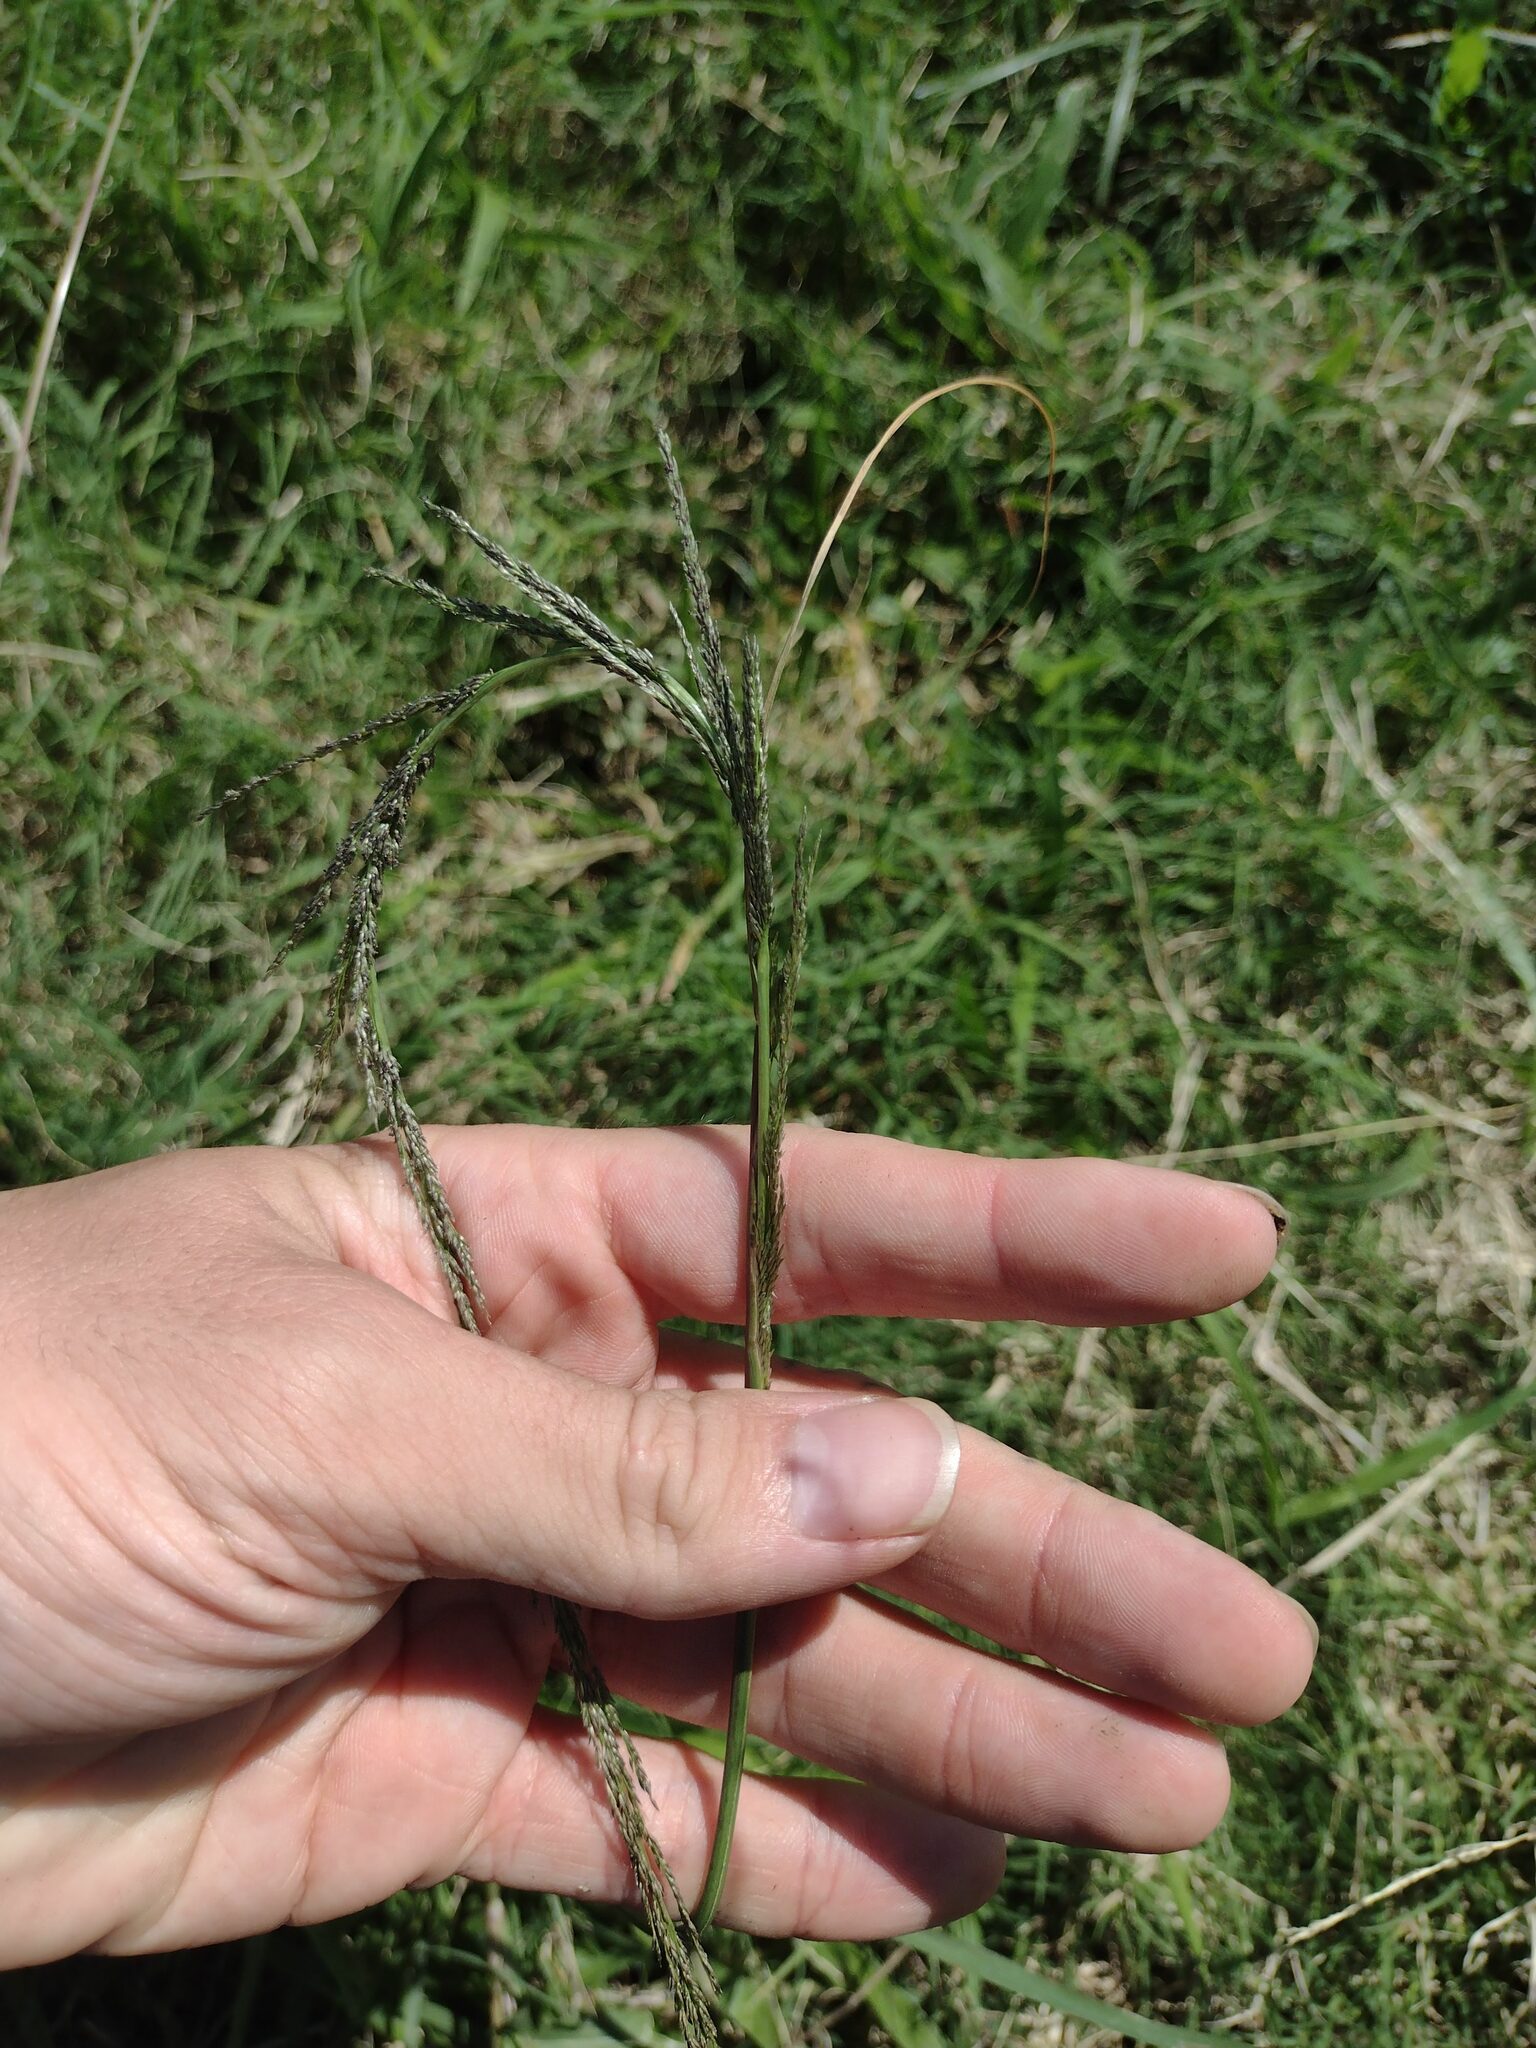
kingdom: Plantae
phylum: Tracheophyta
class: Liliopsida
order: Poales
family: Poaceae
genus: Sporobolus
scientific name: Sporobolus elongatus
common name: Rat tail grass
